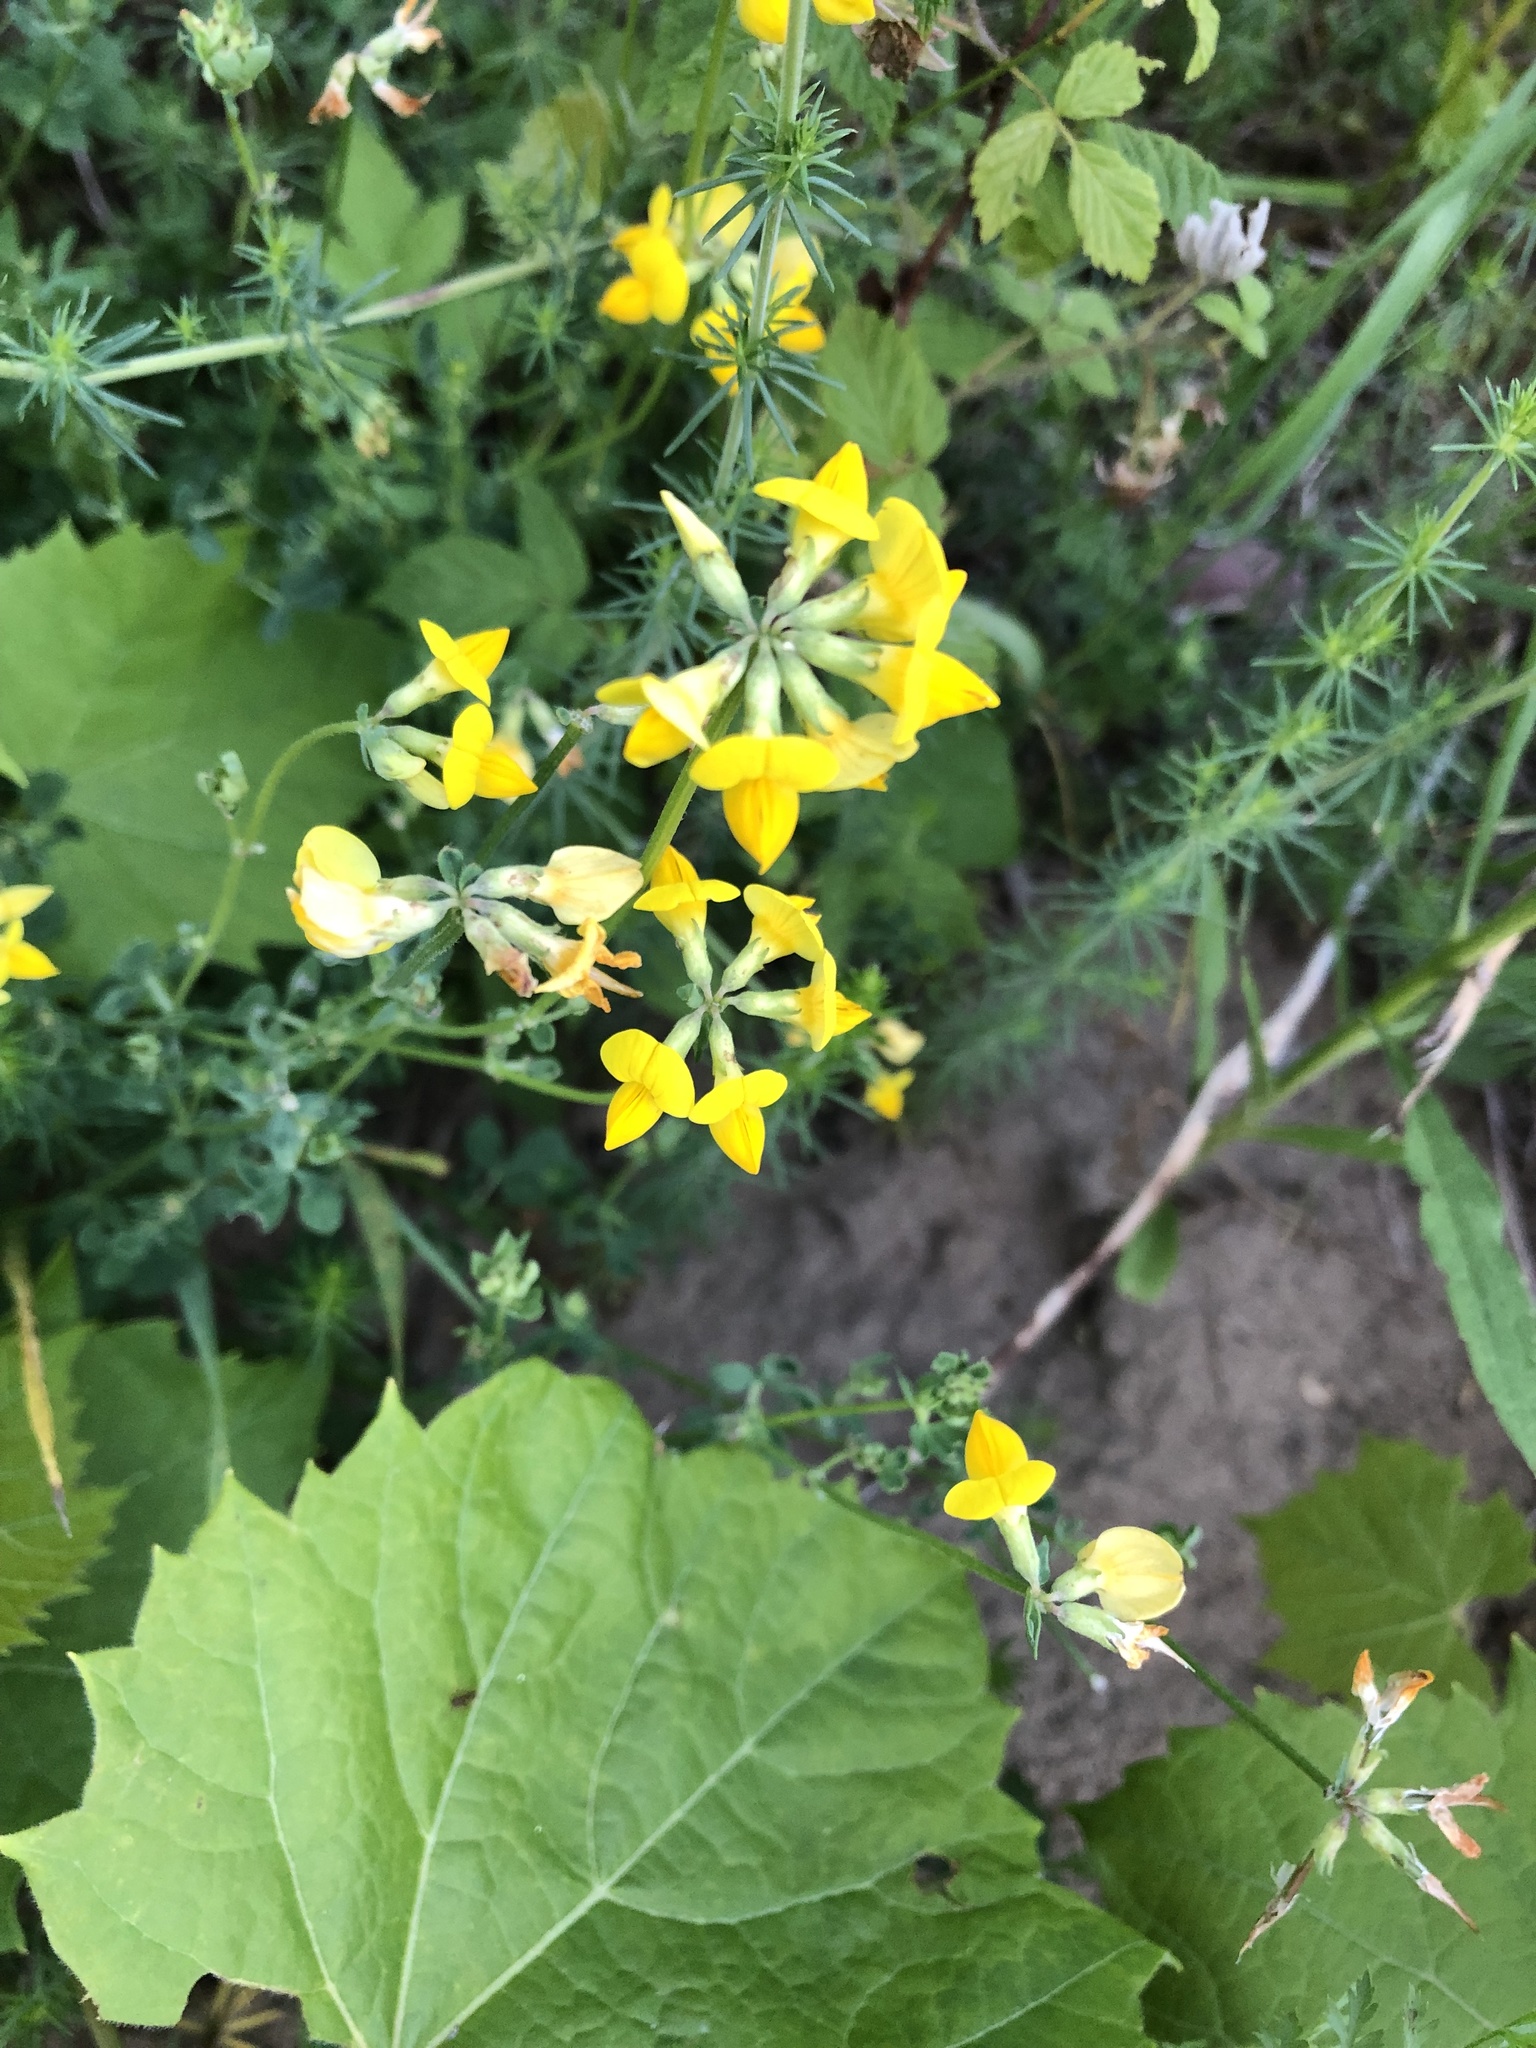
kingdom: Plantae
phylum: Tracheophyta
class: Magnoliopsida
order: Fabales
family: Fabaceae
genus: Lotus
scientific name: Lotus corniculatus
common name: Common bird's-foot-trefoil
